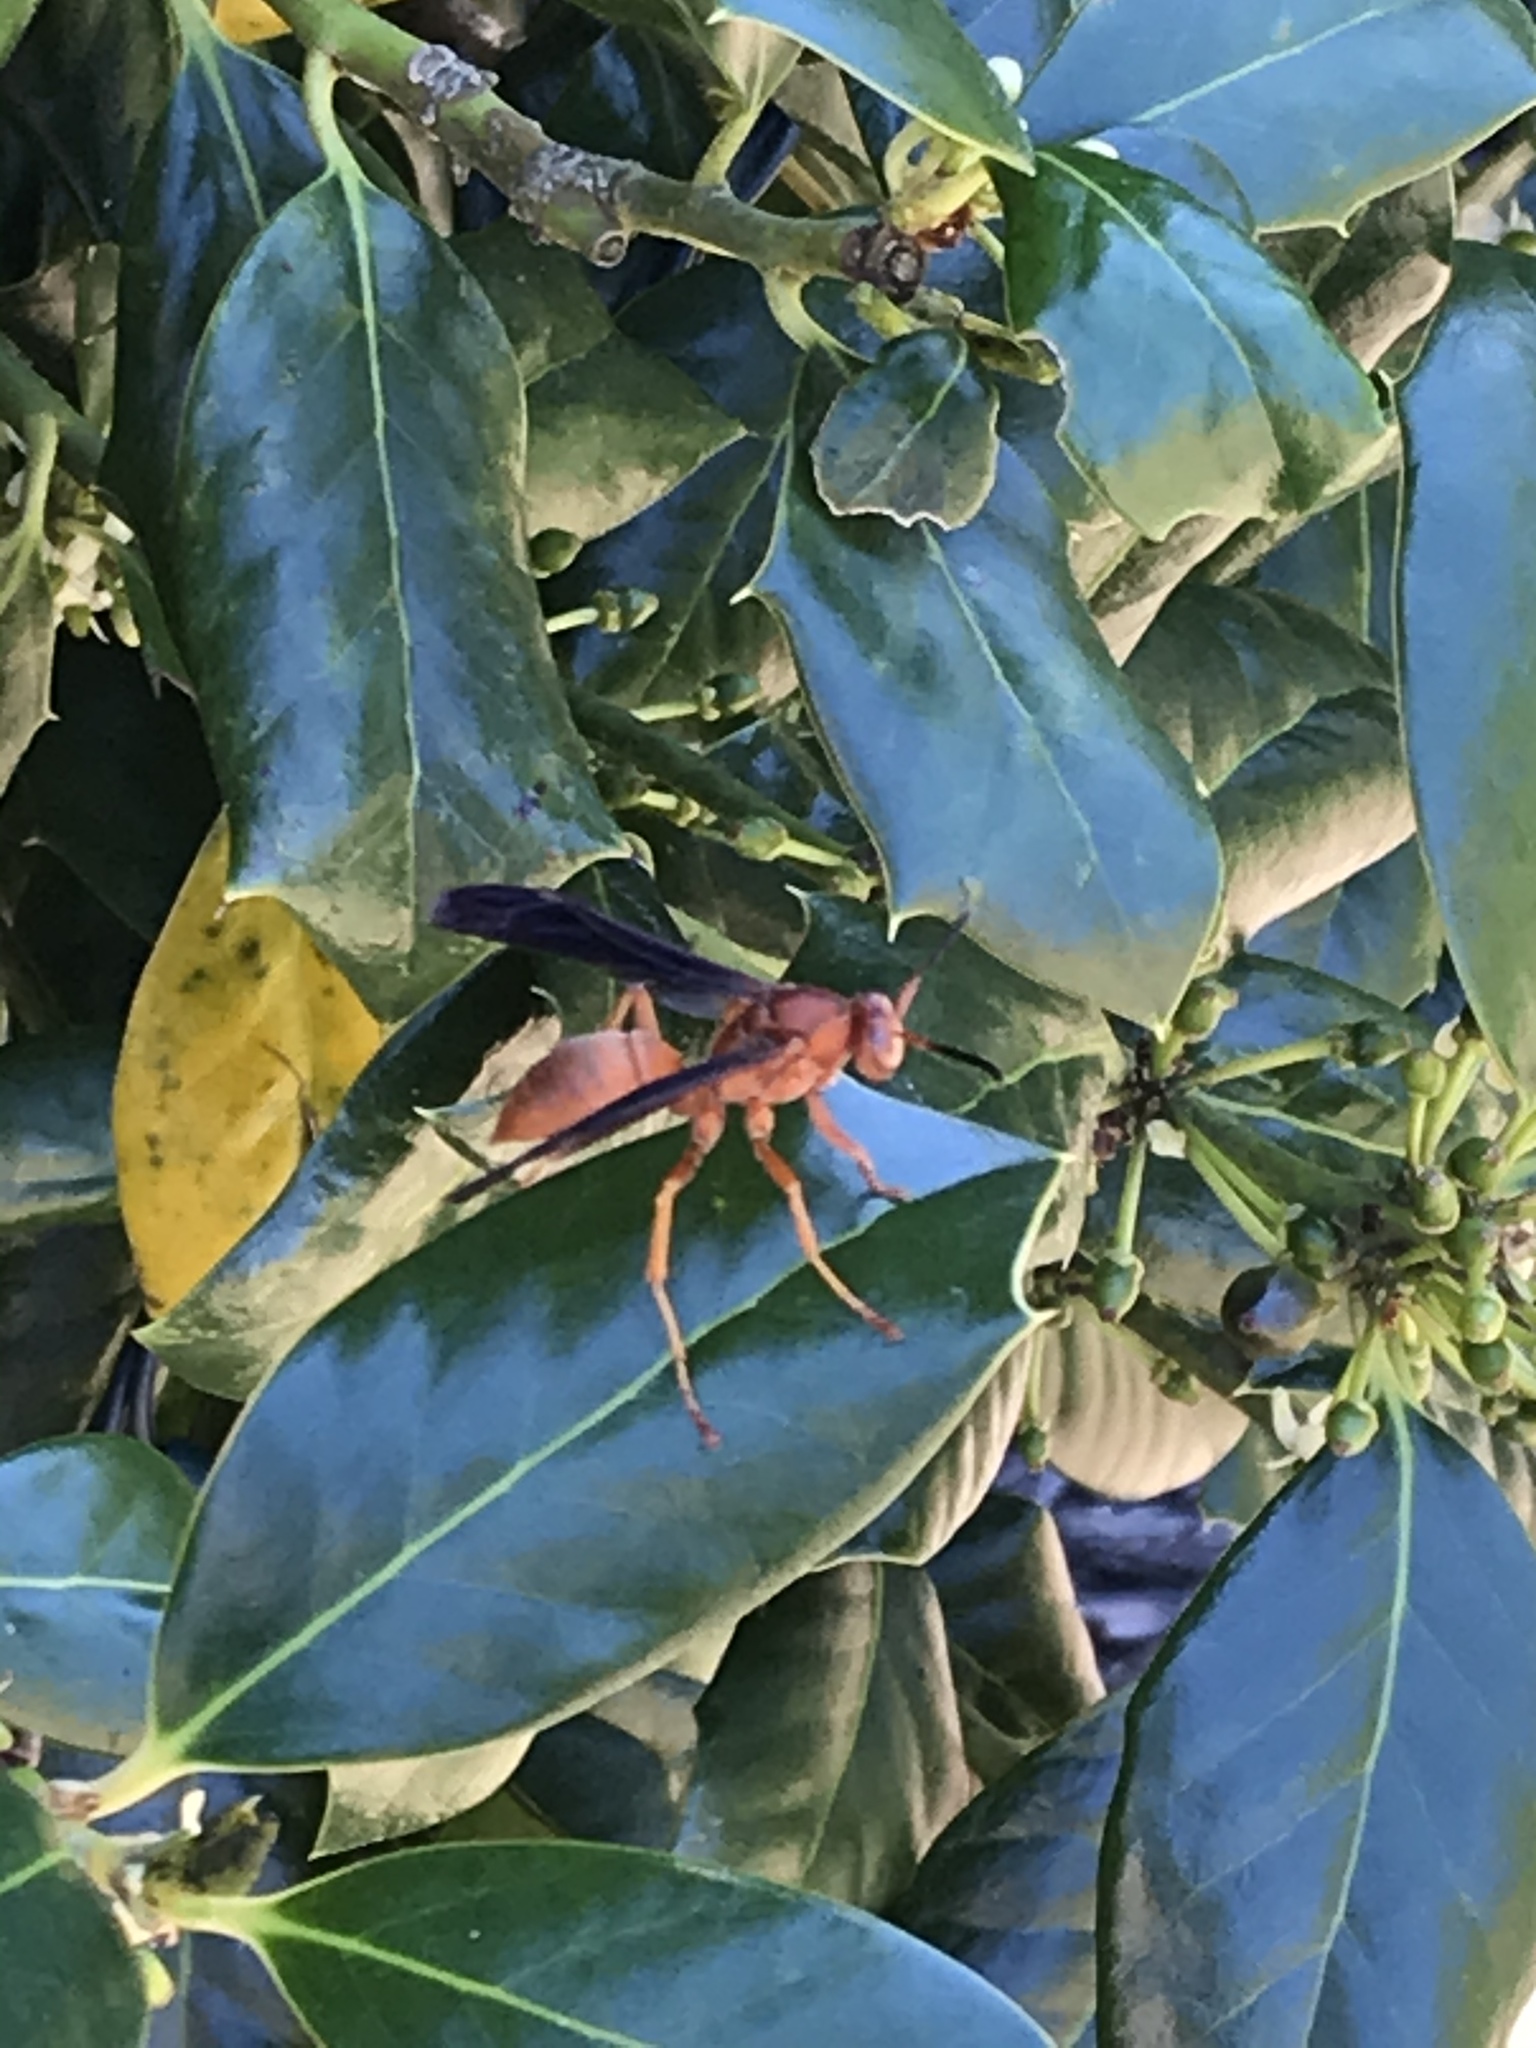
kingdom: Animalia
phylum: Arthropoda
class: Insecta
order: Hymenoptera
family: Vespidae
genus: Fuscopolistes
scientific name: Fuscopolistes
